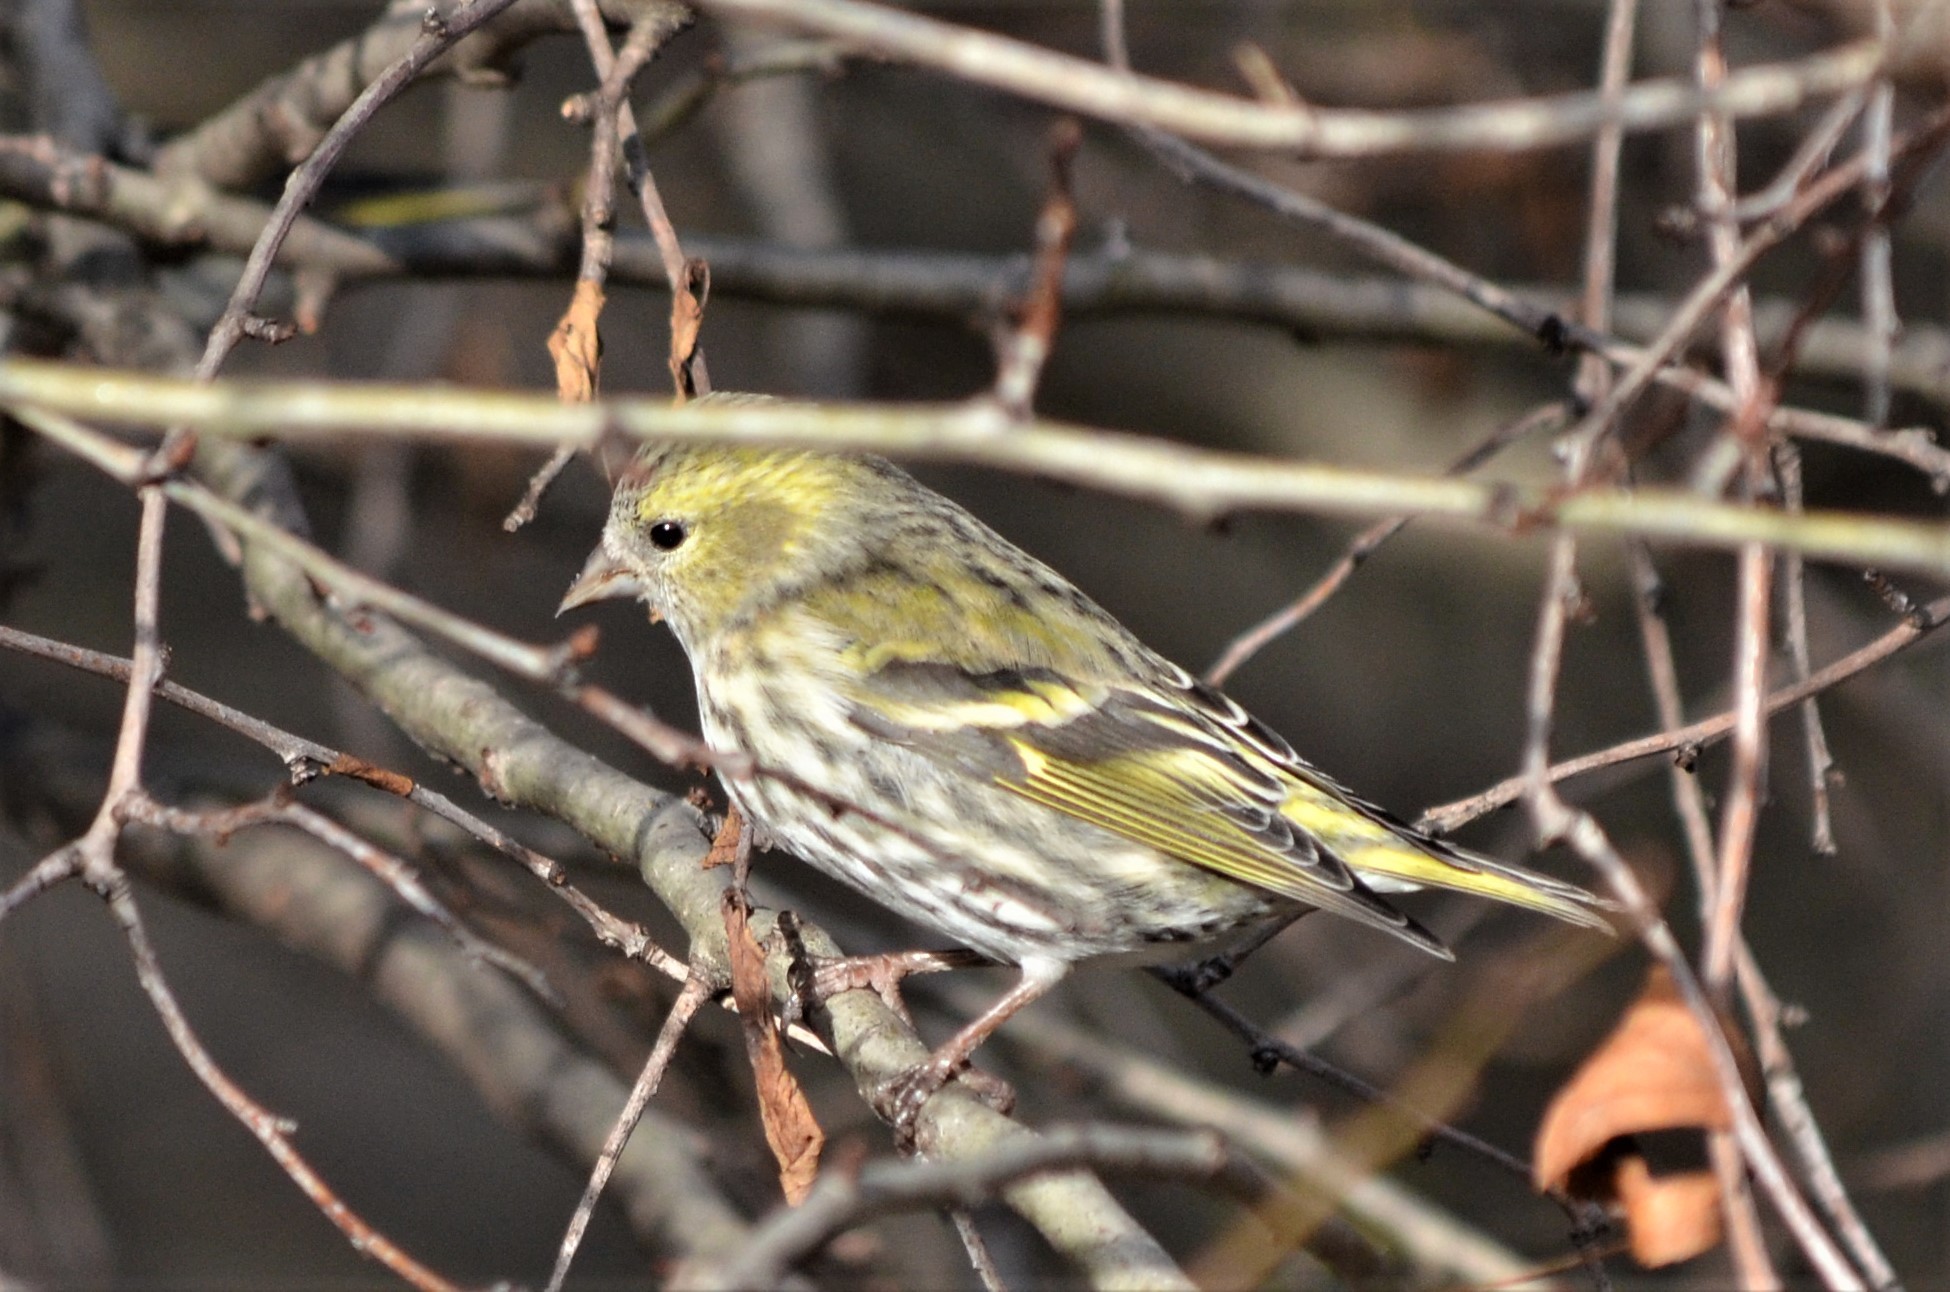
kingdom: Animalia
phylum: Chordata
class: Aves
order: Passeriformes
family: Fringillidae
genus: Spinus
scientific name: Spinus spinus
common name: Eurasian siskin
